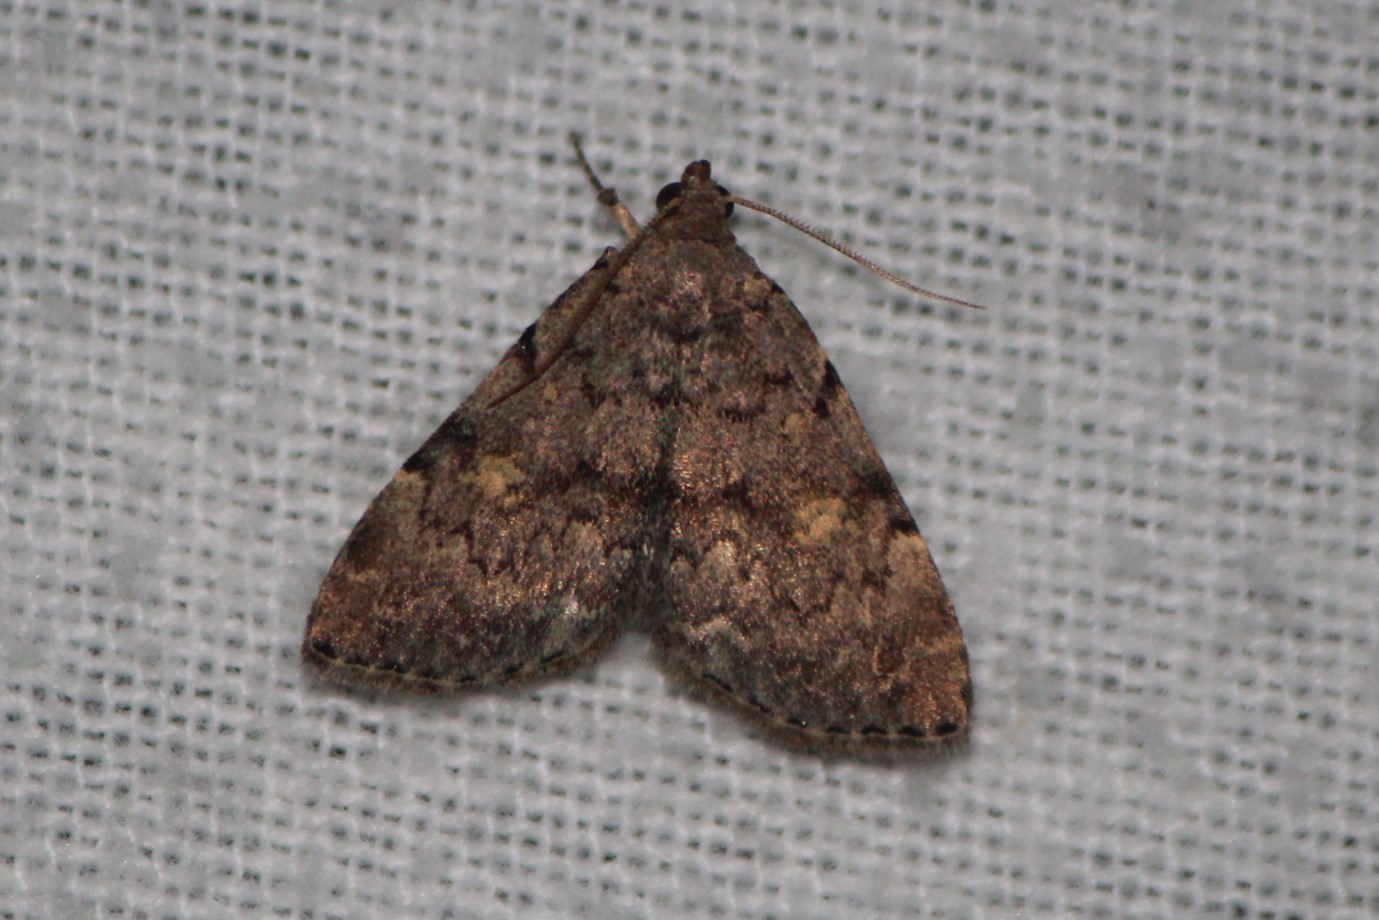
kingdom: Animalia
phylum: Arthropoda
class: Insecta
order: Lepidoptera
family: Erebidae
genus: Idia
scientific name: Idia aemula
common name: Common idia moth
